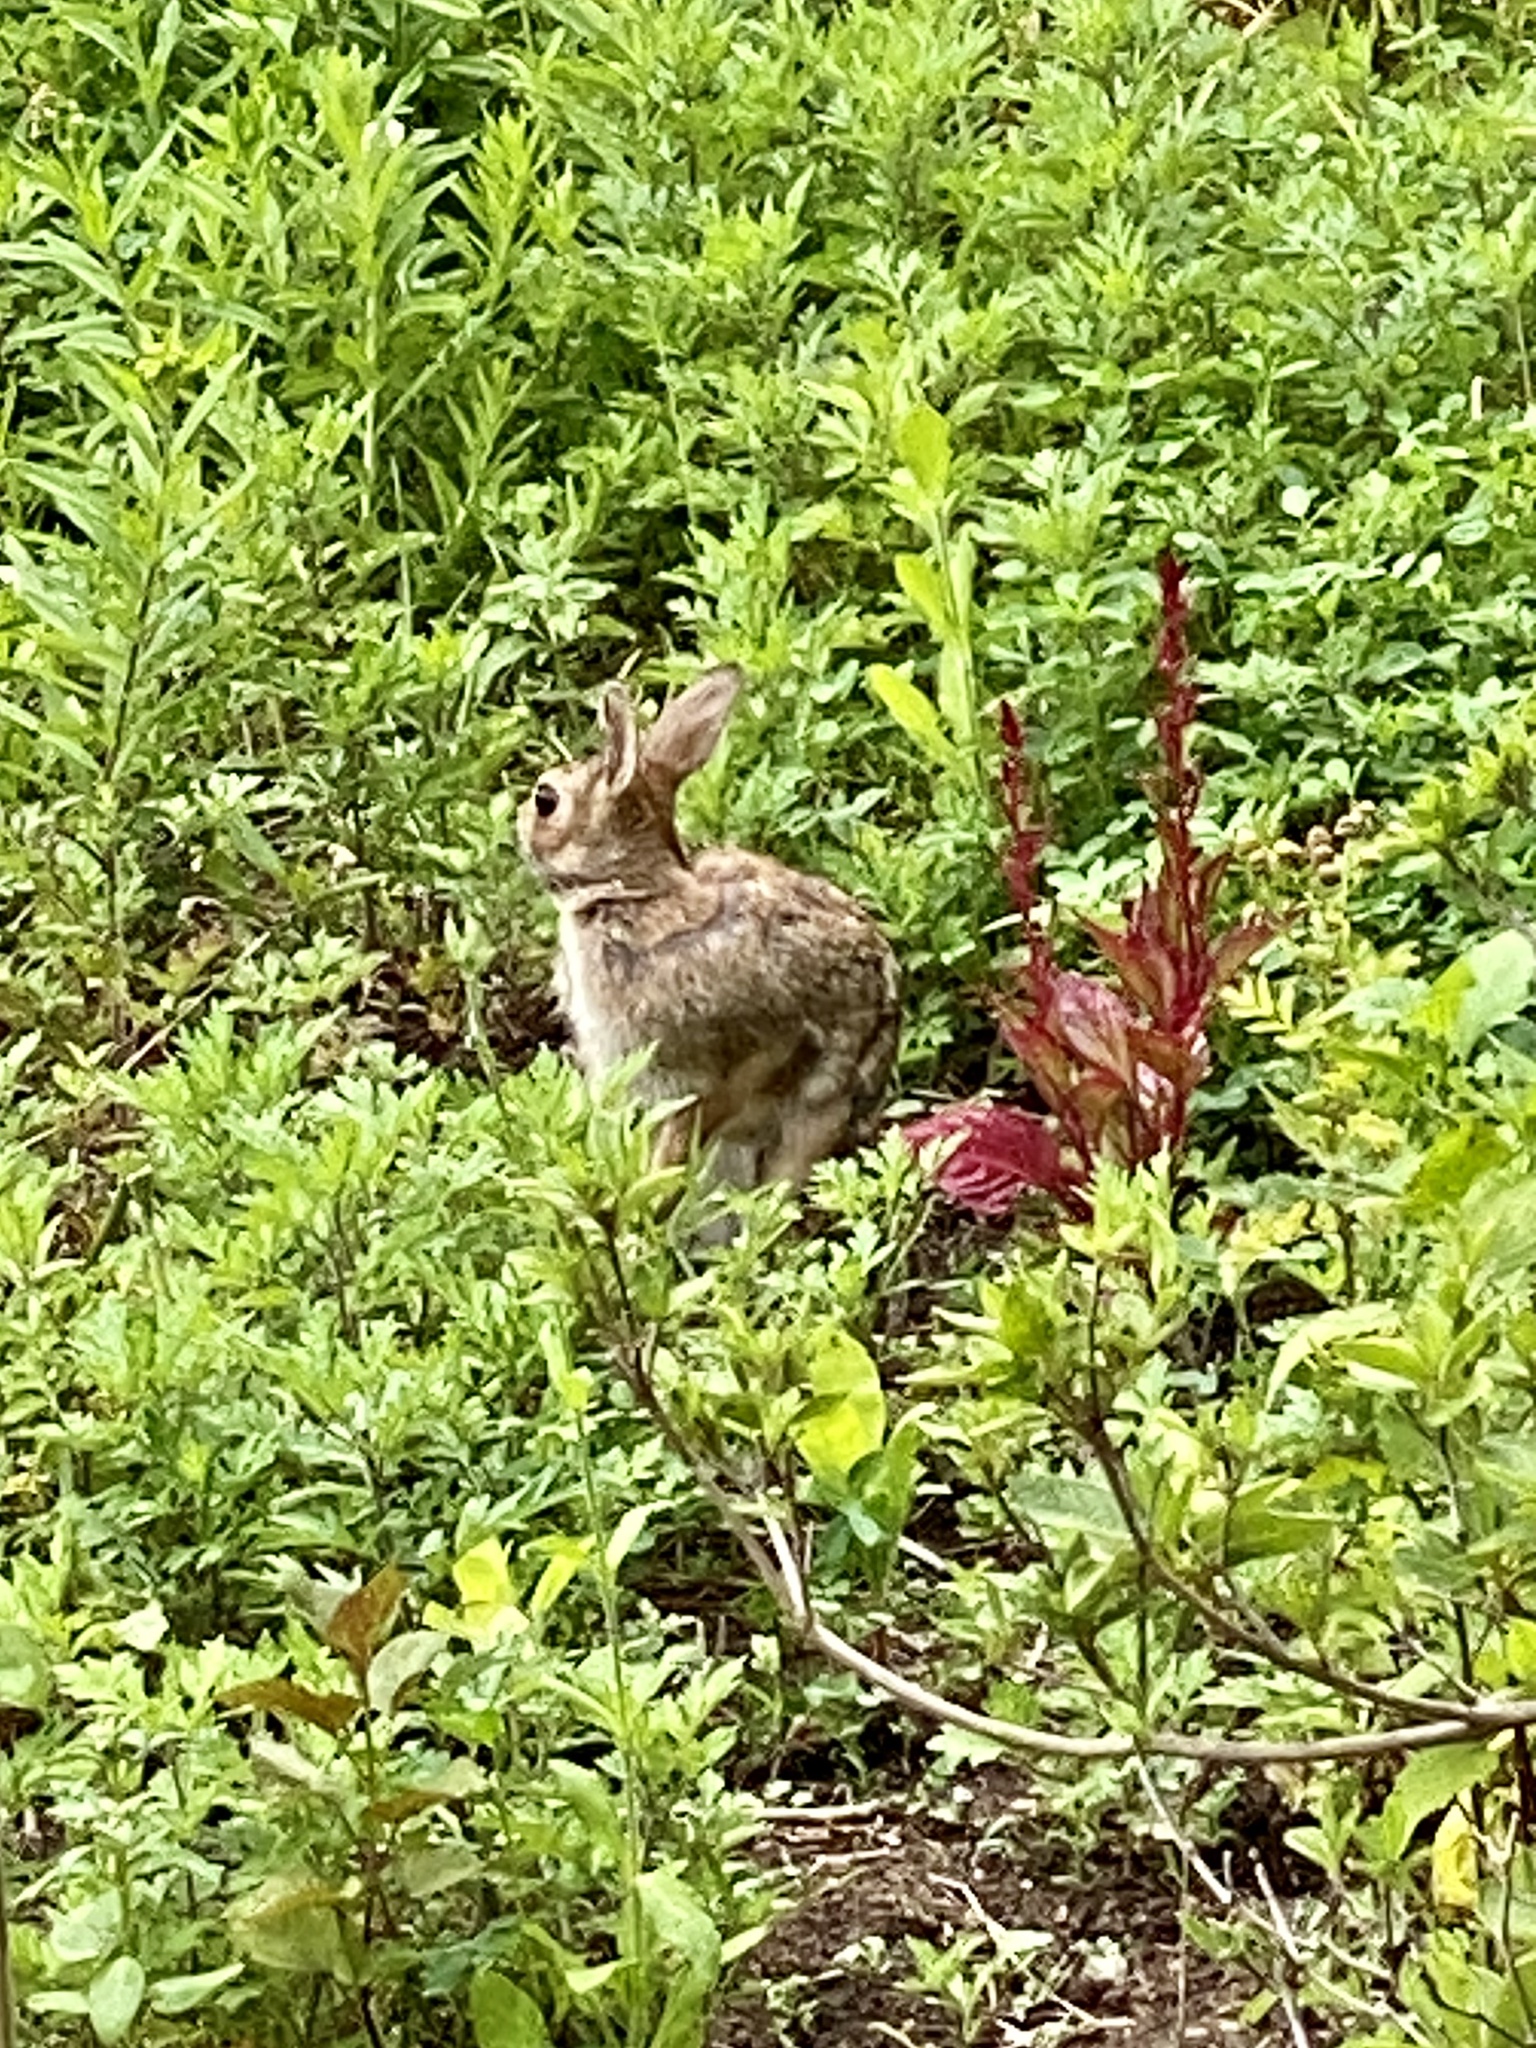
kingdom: Animalia
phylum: Chordata
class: Mammalia
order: Lagomorpha
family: Leporidae
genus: Sylvilagus
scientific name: Sylvilagus floridanus
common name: Eastern cottontail
